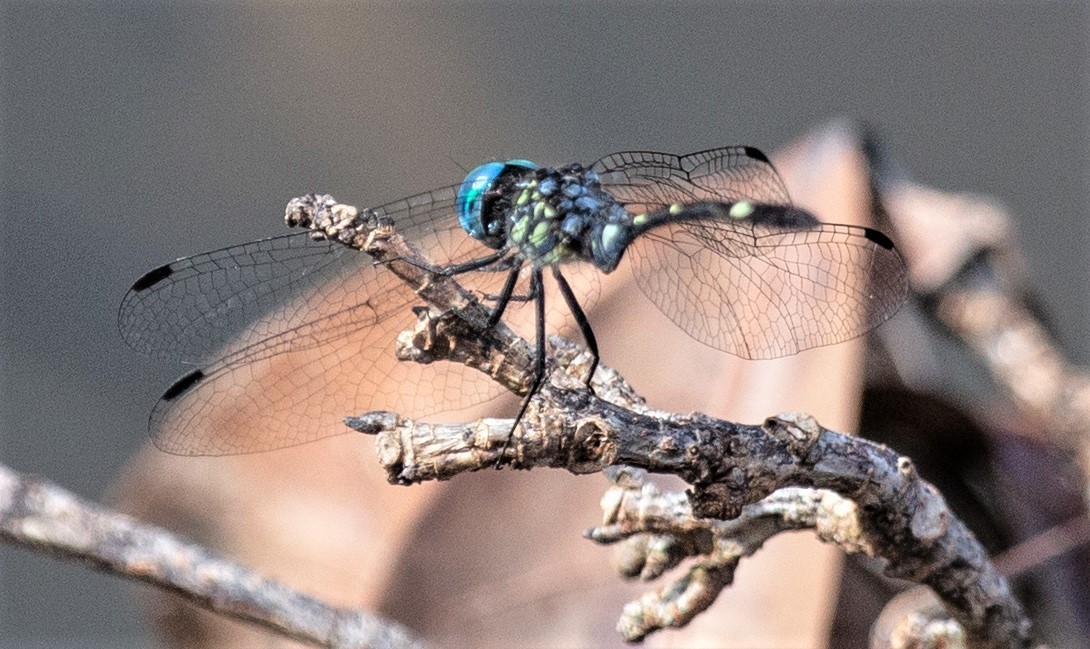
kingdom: Animalia
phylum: Arthropoda
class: Insecta
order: Odonata
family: Libellulidae
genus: Micrathyria
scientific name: Micrathyria catenata
